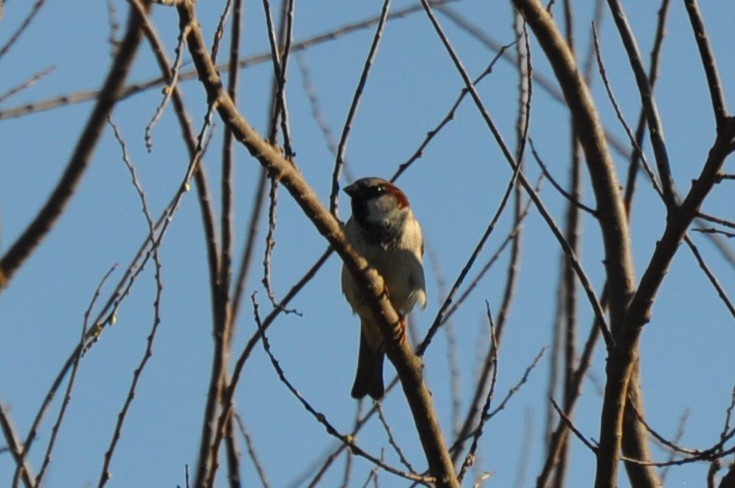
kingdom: Animalia
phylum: Chordata
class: Aves
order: Passeriformes
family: Passeridae
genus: Passer
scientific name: Passer domesticus
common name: House sparrow
